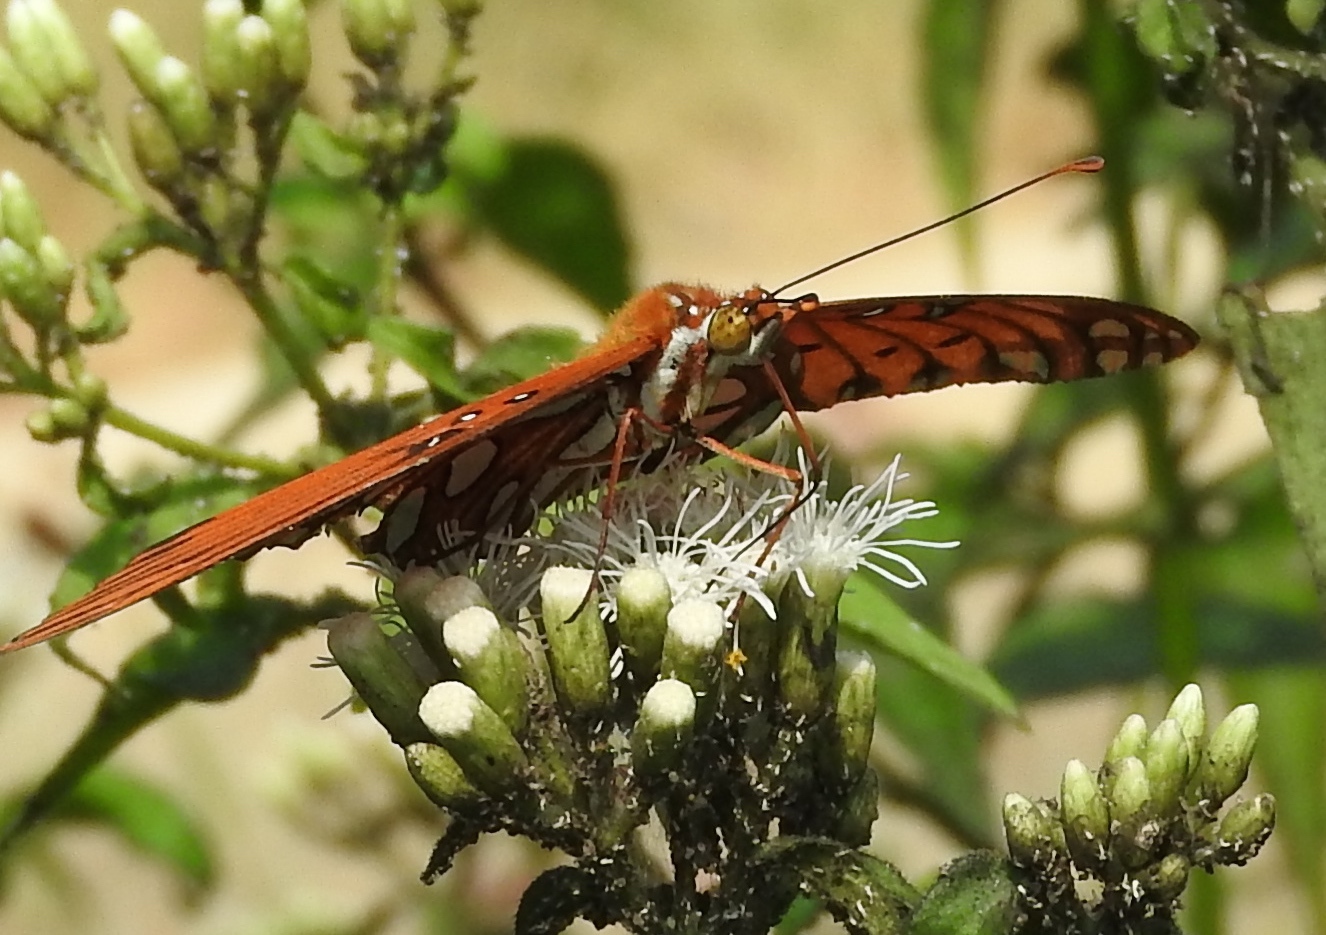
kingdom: Animalia
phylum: Arthropoda
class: Insecta
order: Lepidoptera
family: Nymphalidae
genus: Dione
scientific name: Dione vanillae
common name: Gulf fritillary
